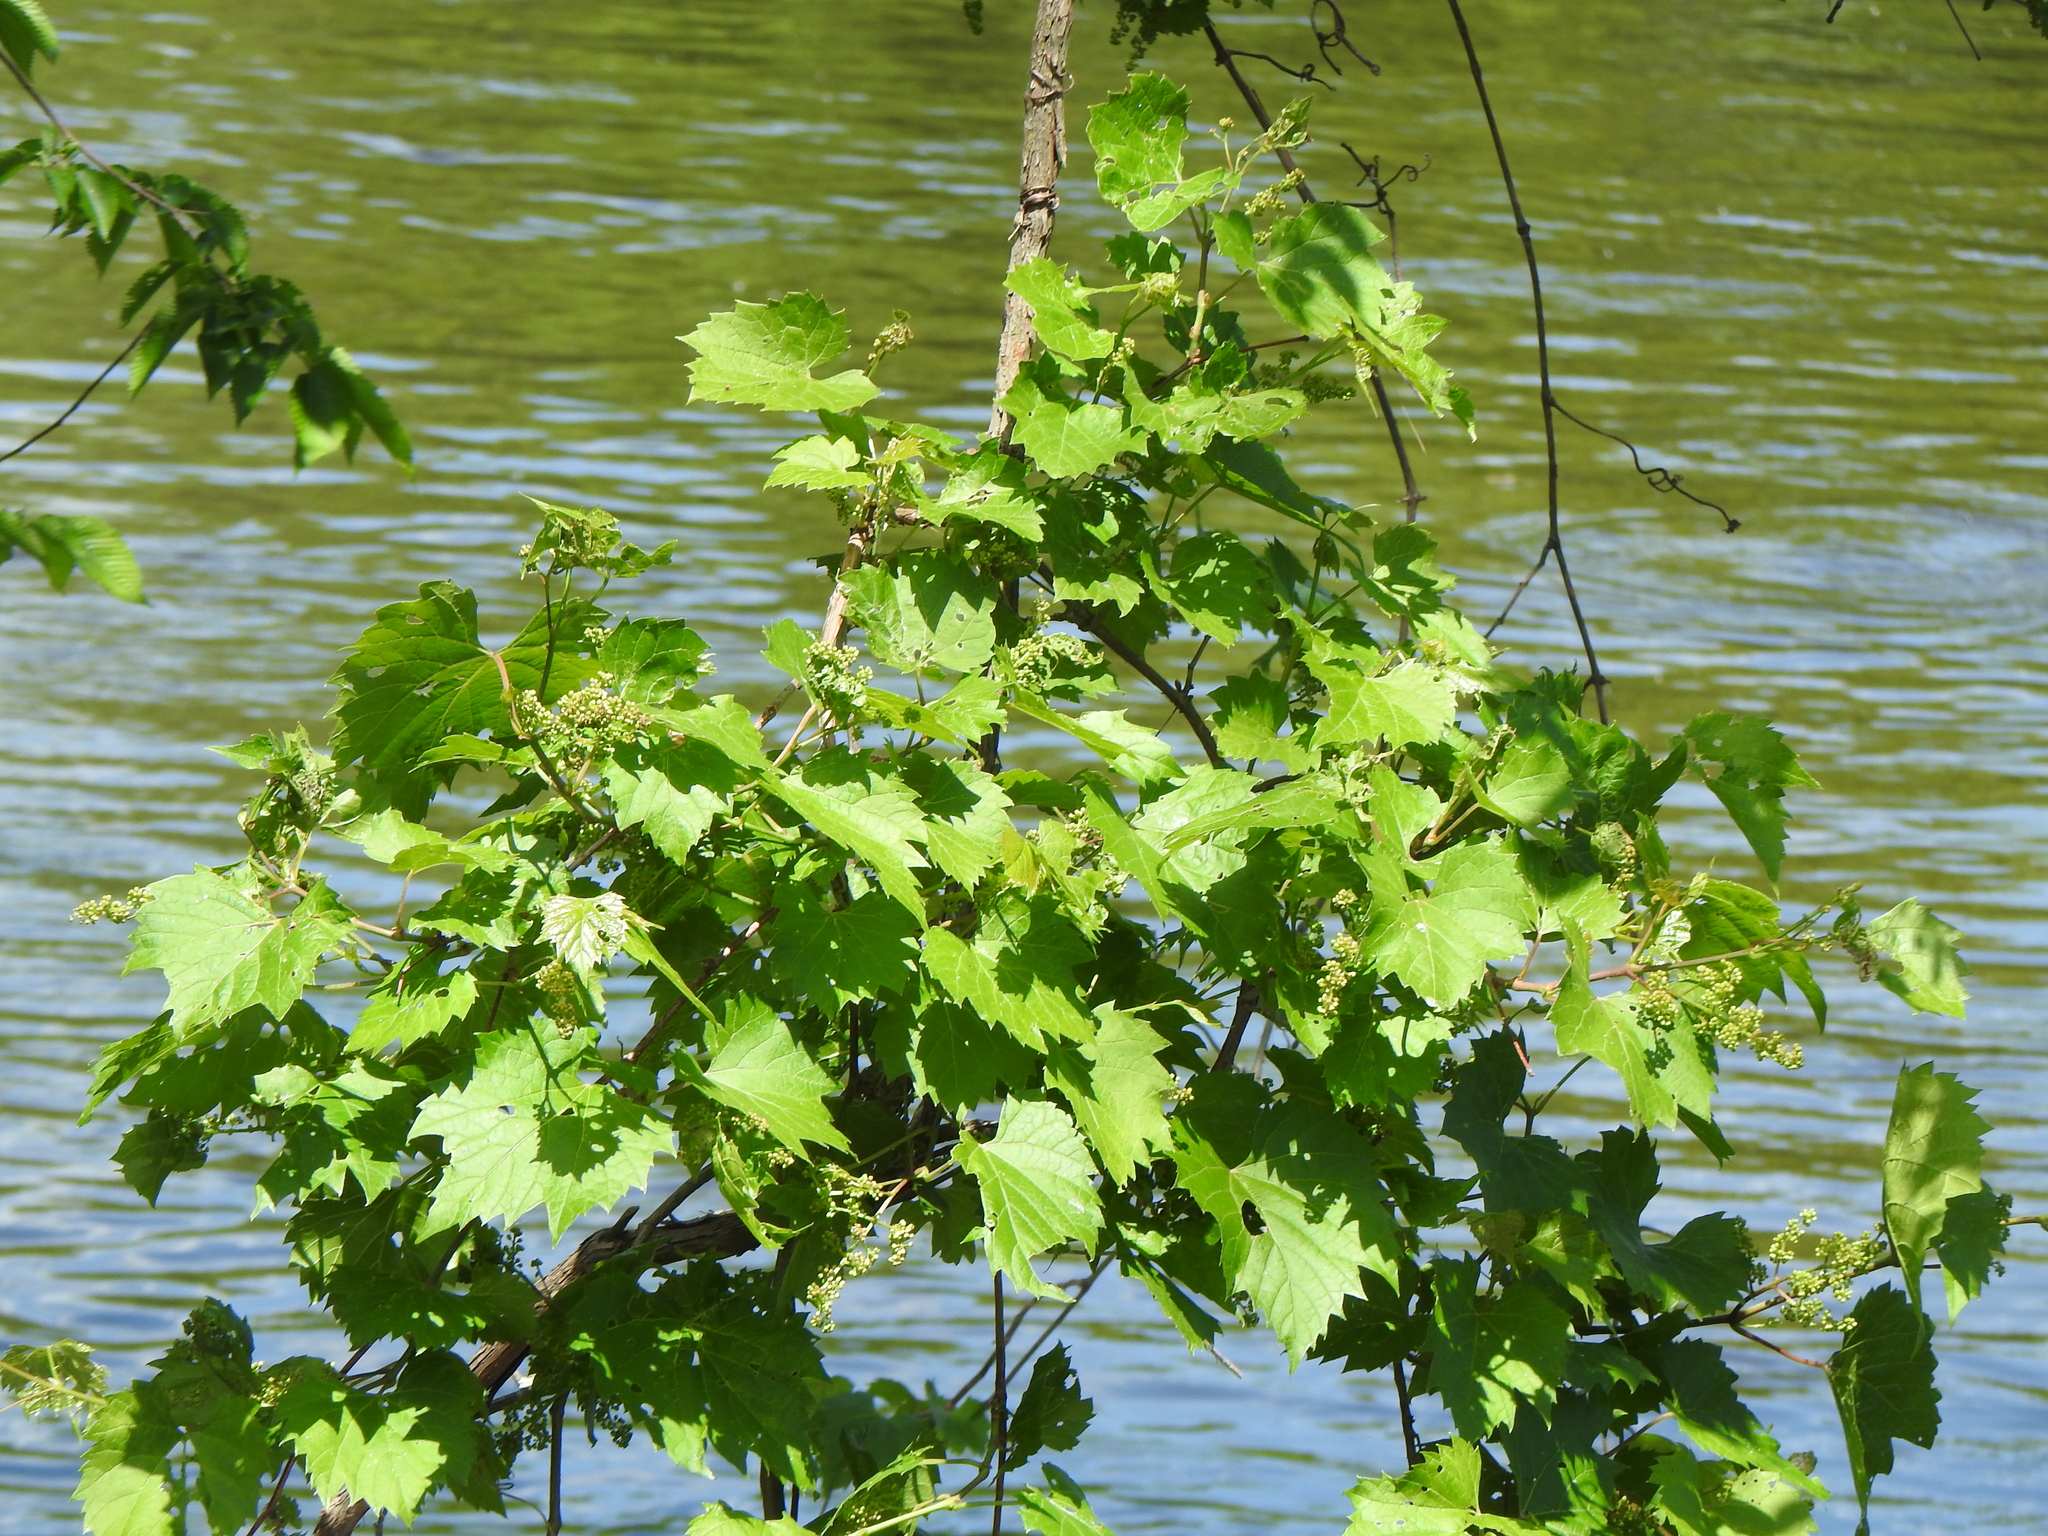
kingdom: Plantae
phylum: Tracheophyta
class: Magnoliopsida
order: Vitales
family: Vitaceae
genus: Vitis
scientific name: Vitis riparia
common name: Frost grape
